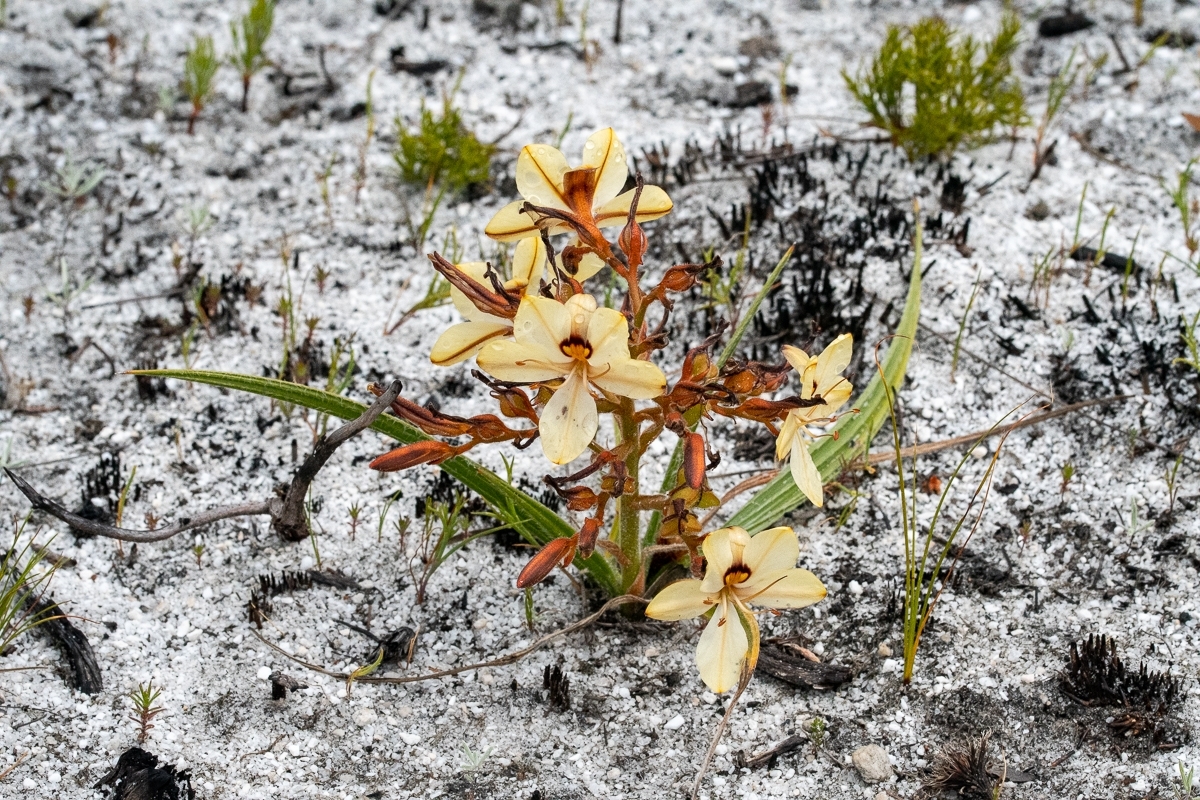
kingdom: Plantae
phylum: Tracheophyta
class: Liliopsida
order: Commelinales
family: Haemodoraceae
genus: Wachendorfia
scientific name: Wachendorfia paniculata
